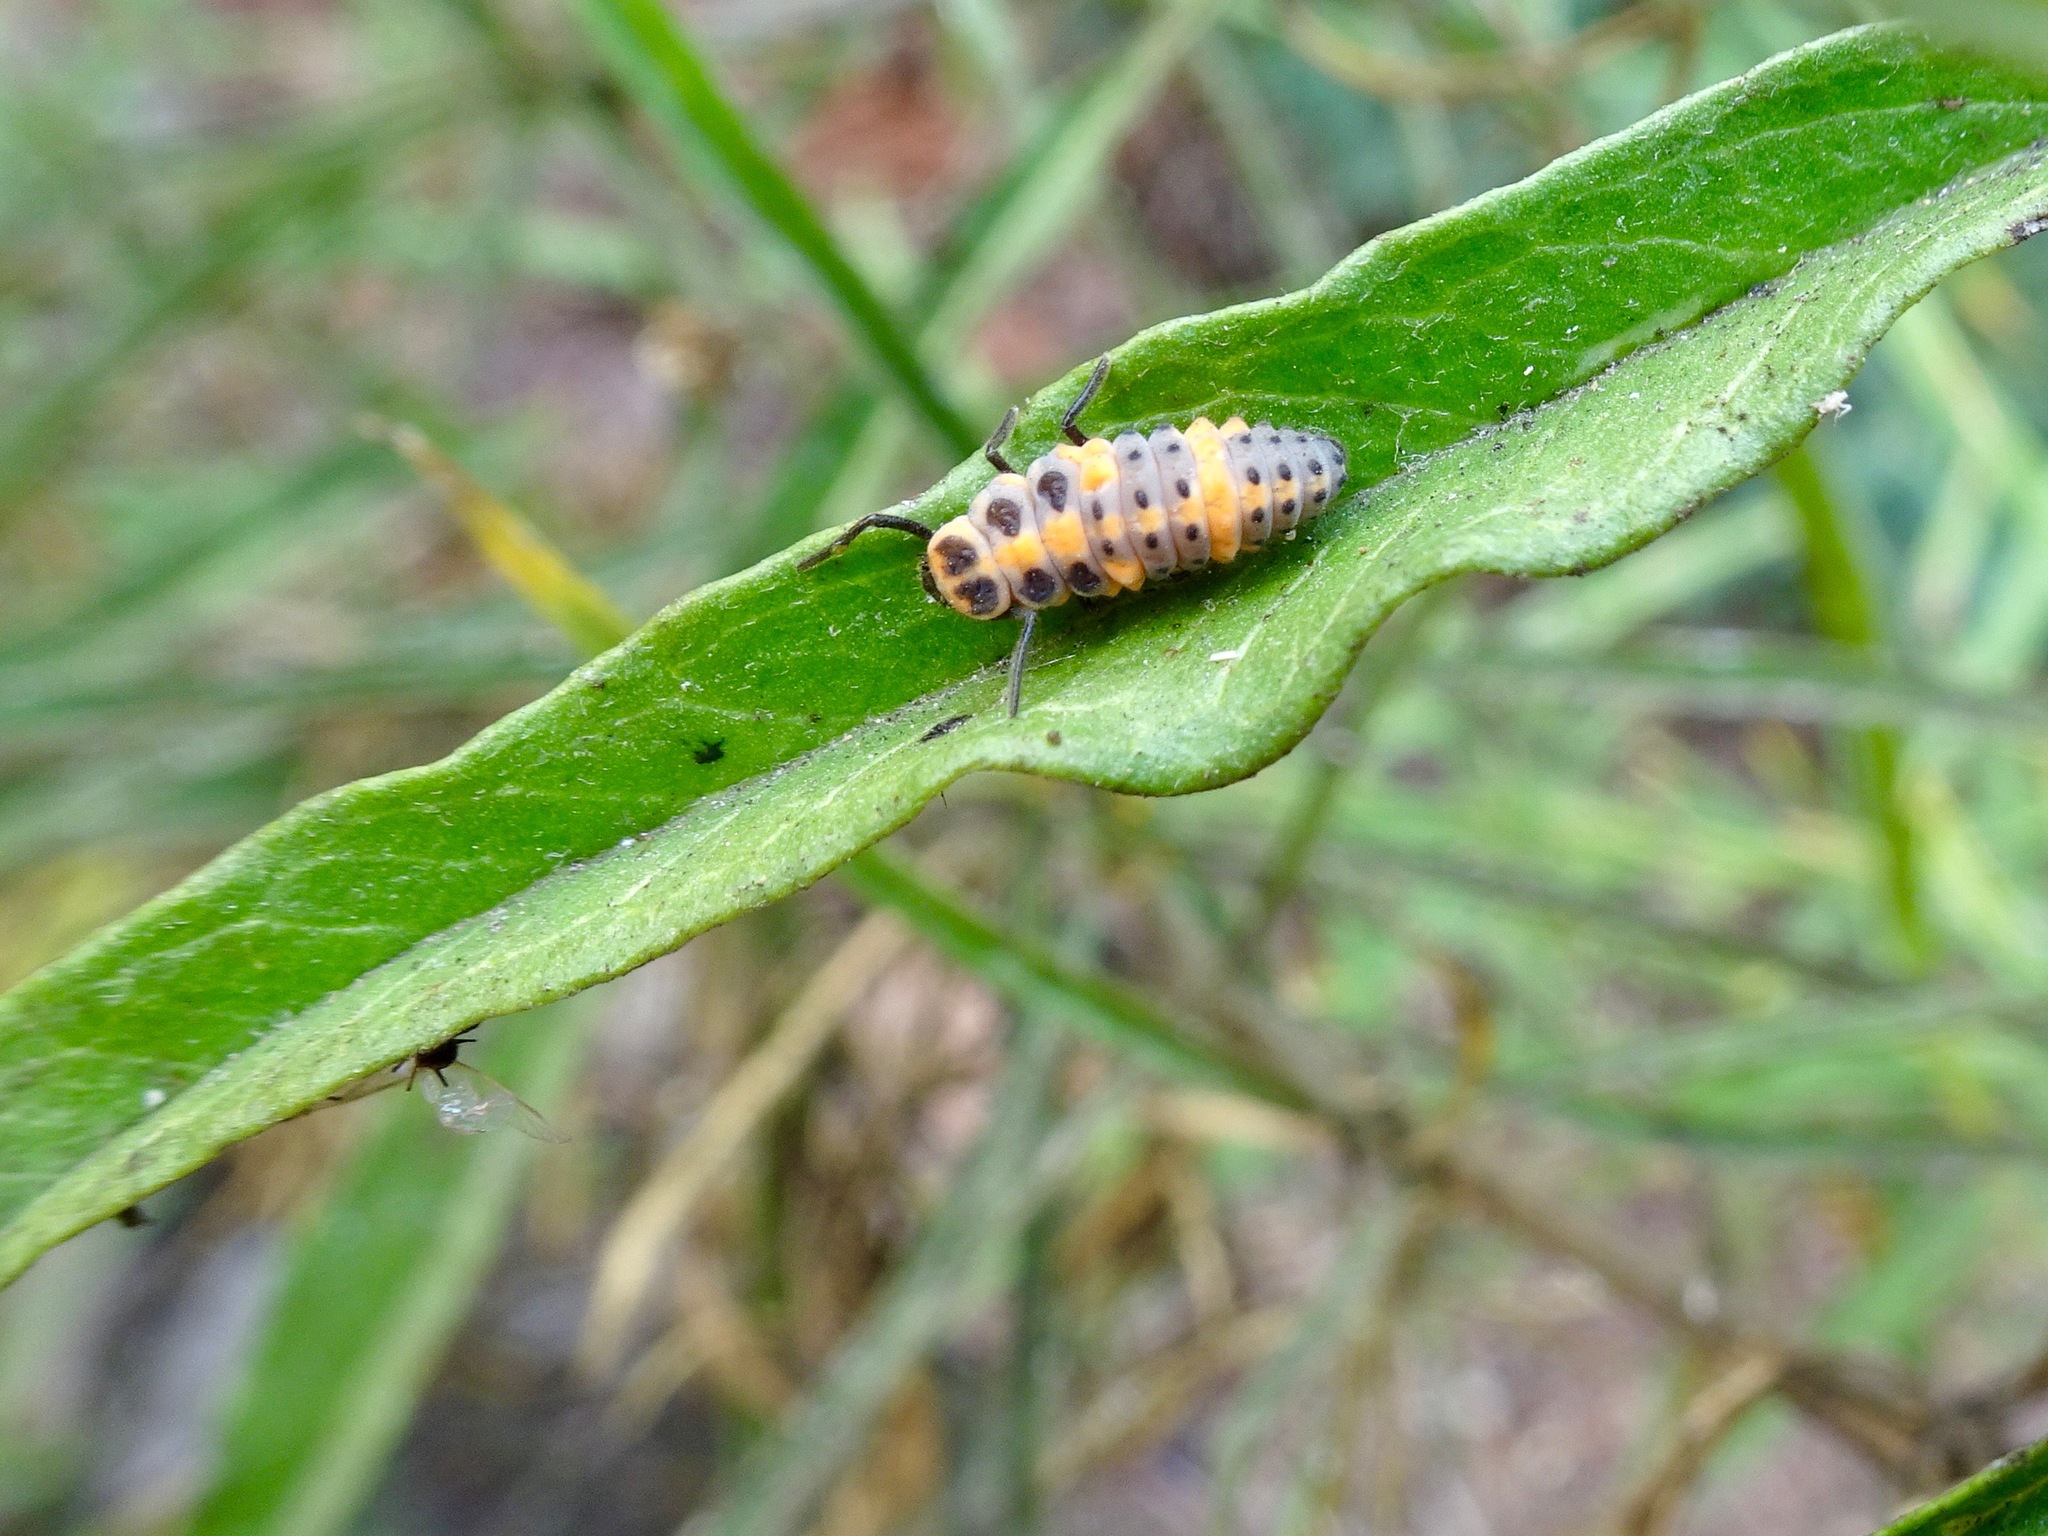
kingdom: Animalia
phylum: Arthropoda
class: Insecta
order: Coleoptera
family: Coccinellidae
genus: Cycloneda
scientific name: Cycloneda sanguinea
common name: Ladybird beetle
